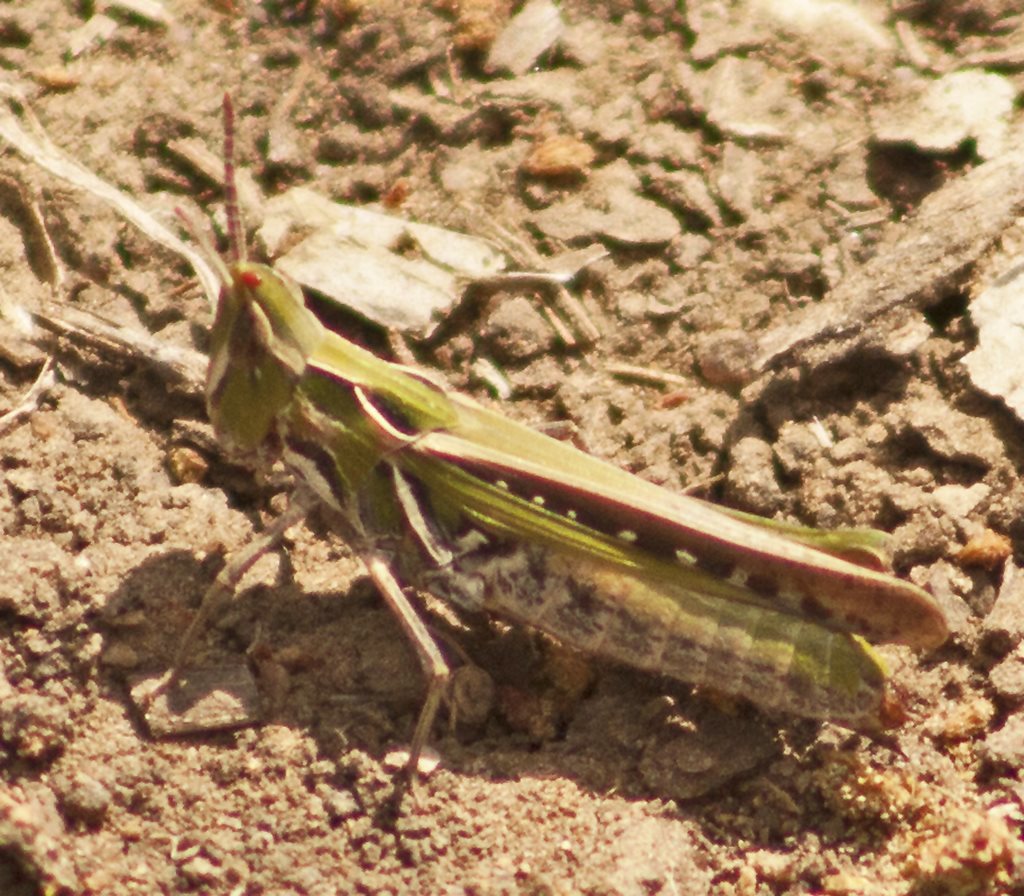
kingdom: Animalia
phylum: Arthropoda
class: Insecta
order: Orthoptera
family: Acrididae
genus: Froggattina
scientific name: Froggattina australis
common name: Froggatt's buzzer
